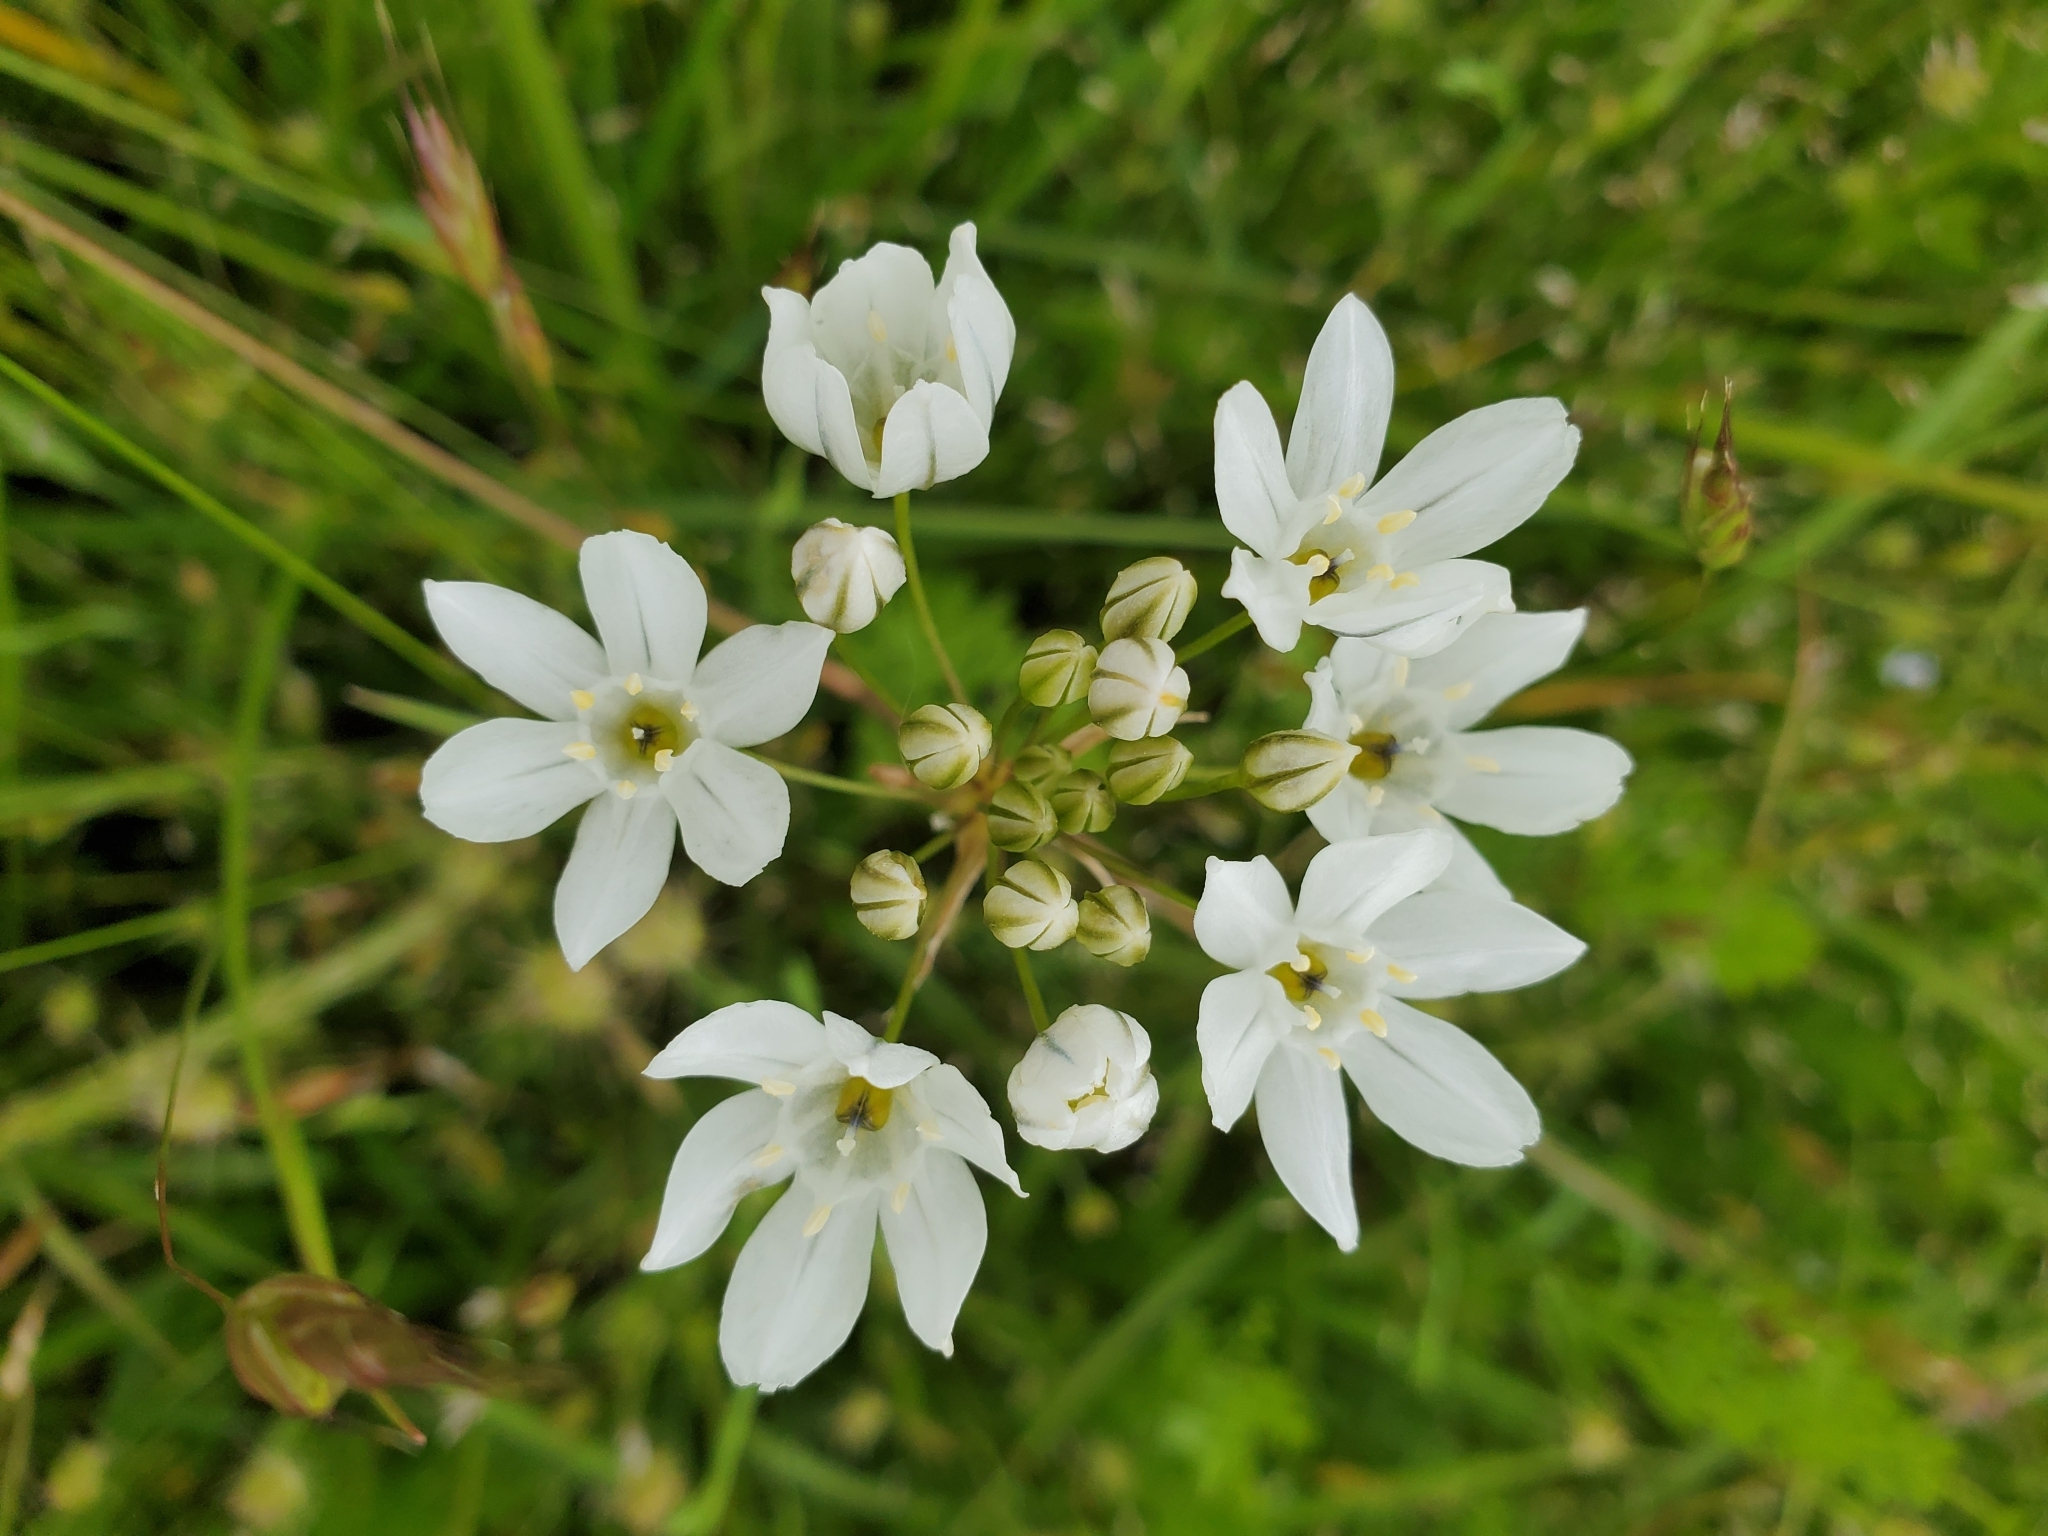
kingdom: Plantae
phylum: Tracheophyta
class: Liliopsida
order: Asparagales
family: Asparagaceae
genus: Triteleia
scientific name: Triteleia hyacinthina
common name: White brodiaea
